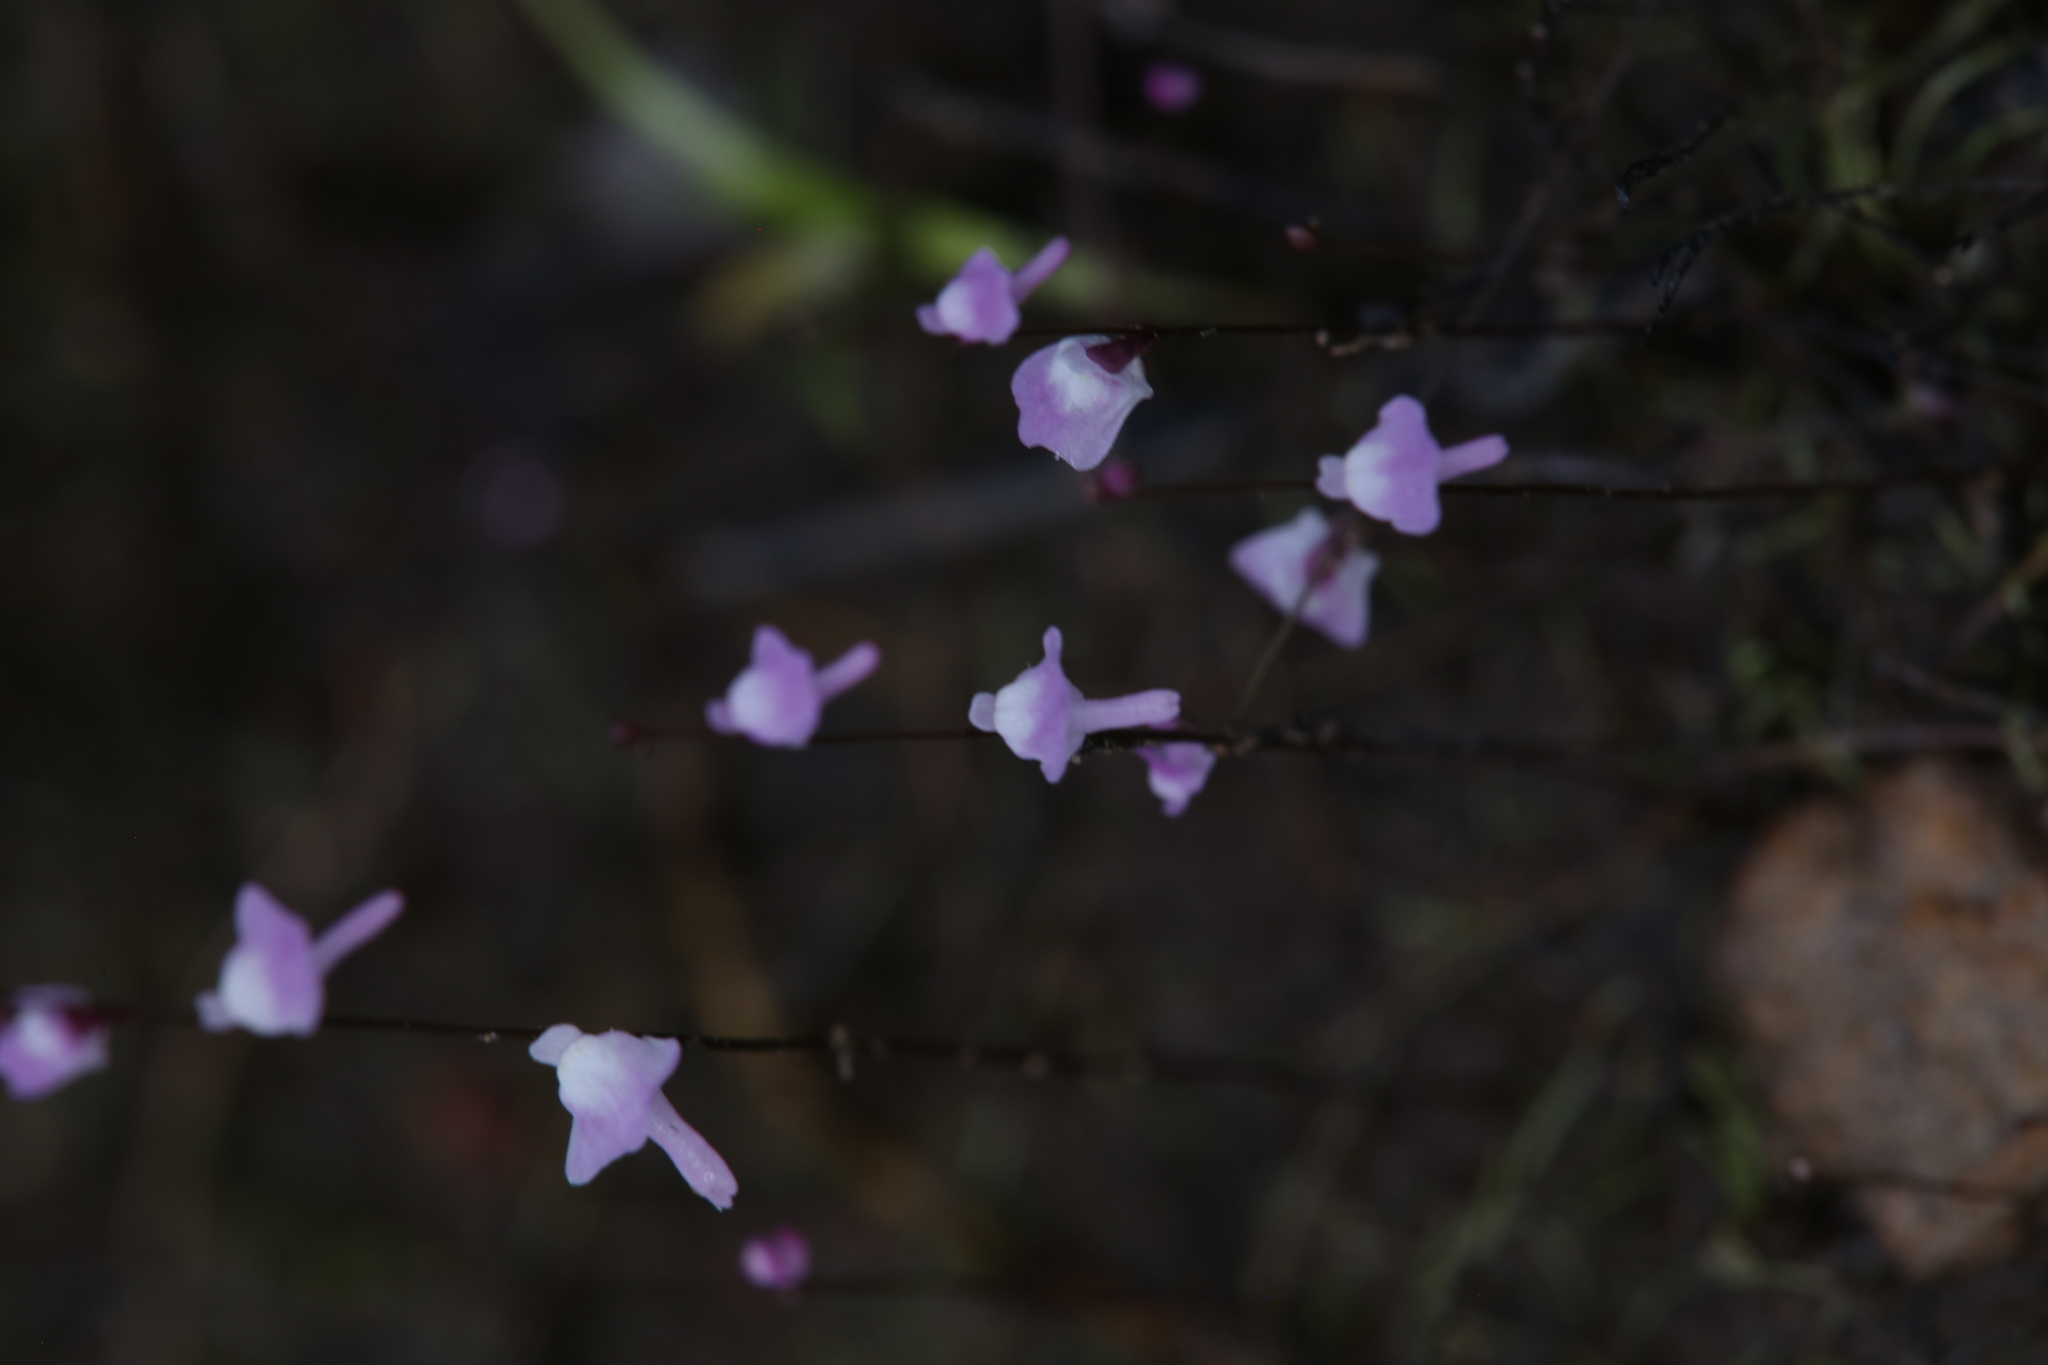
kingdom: Plantae
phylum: Tracheophyta
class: Magnoliopsida
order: Lamiales
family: Lentibulariaceae
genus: Utricularia
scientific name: Utricularia minutissima
